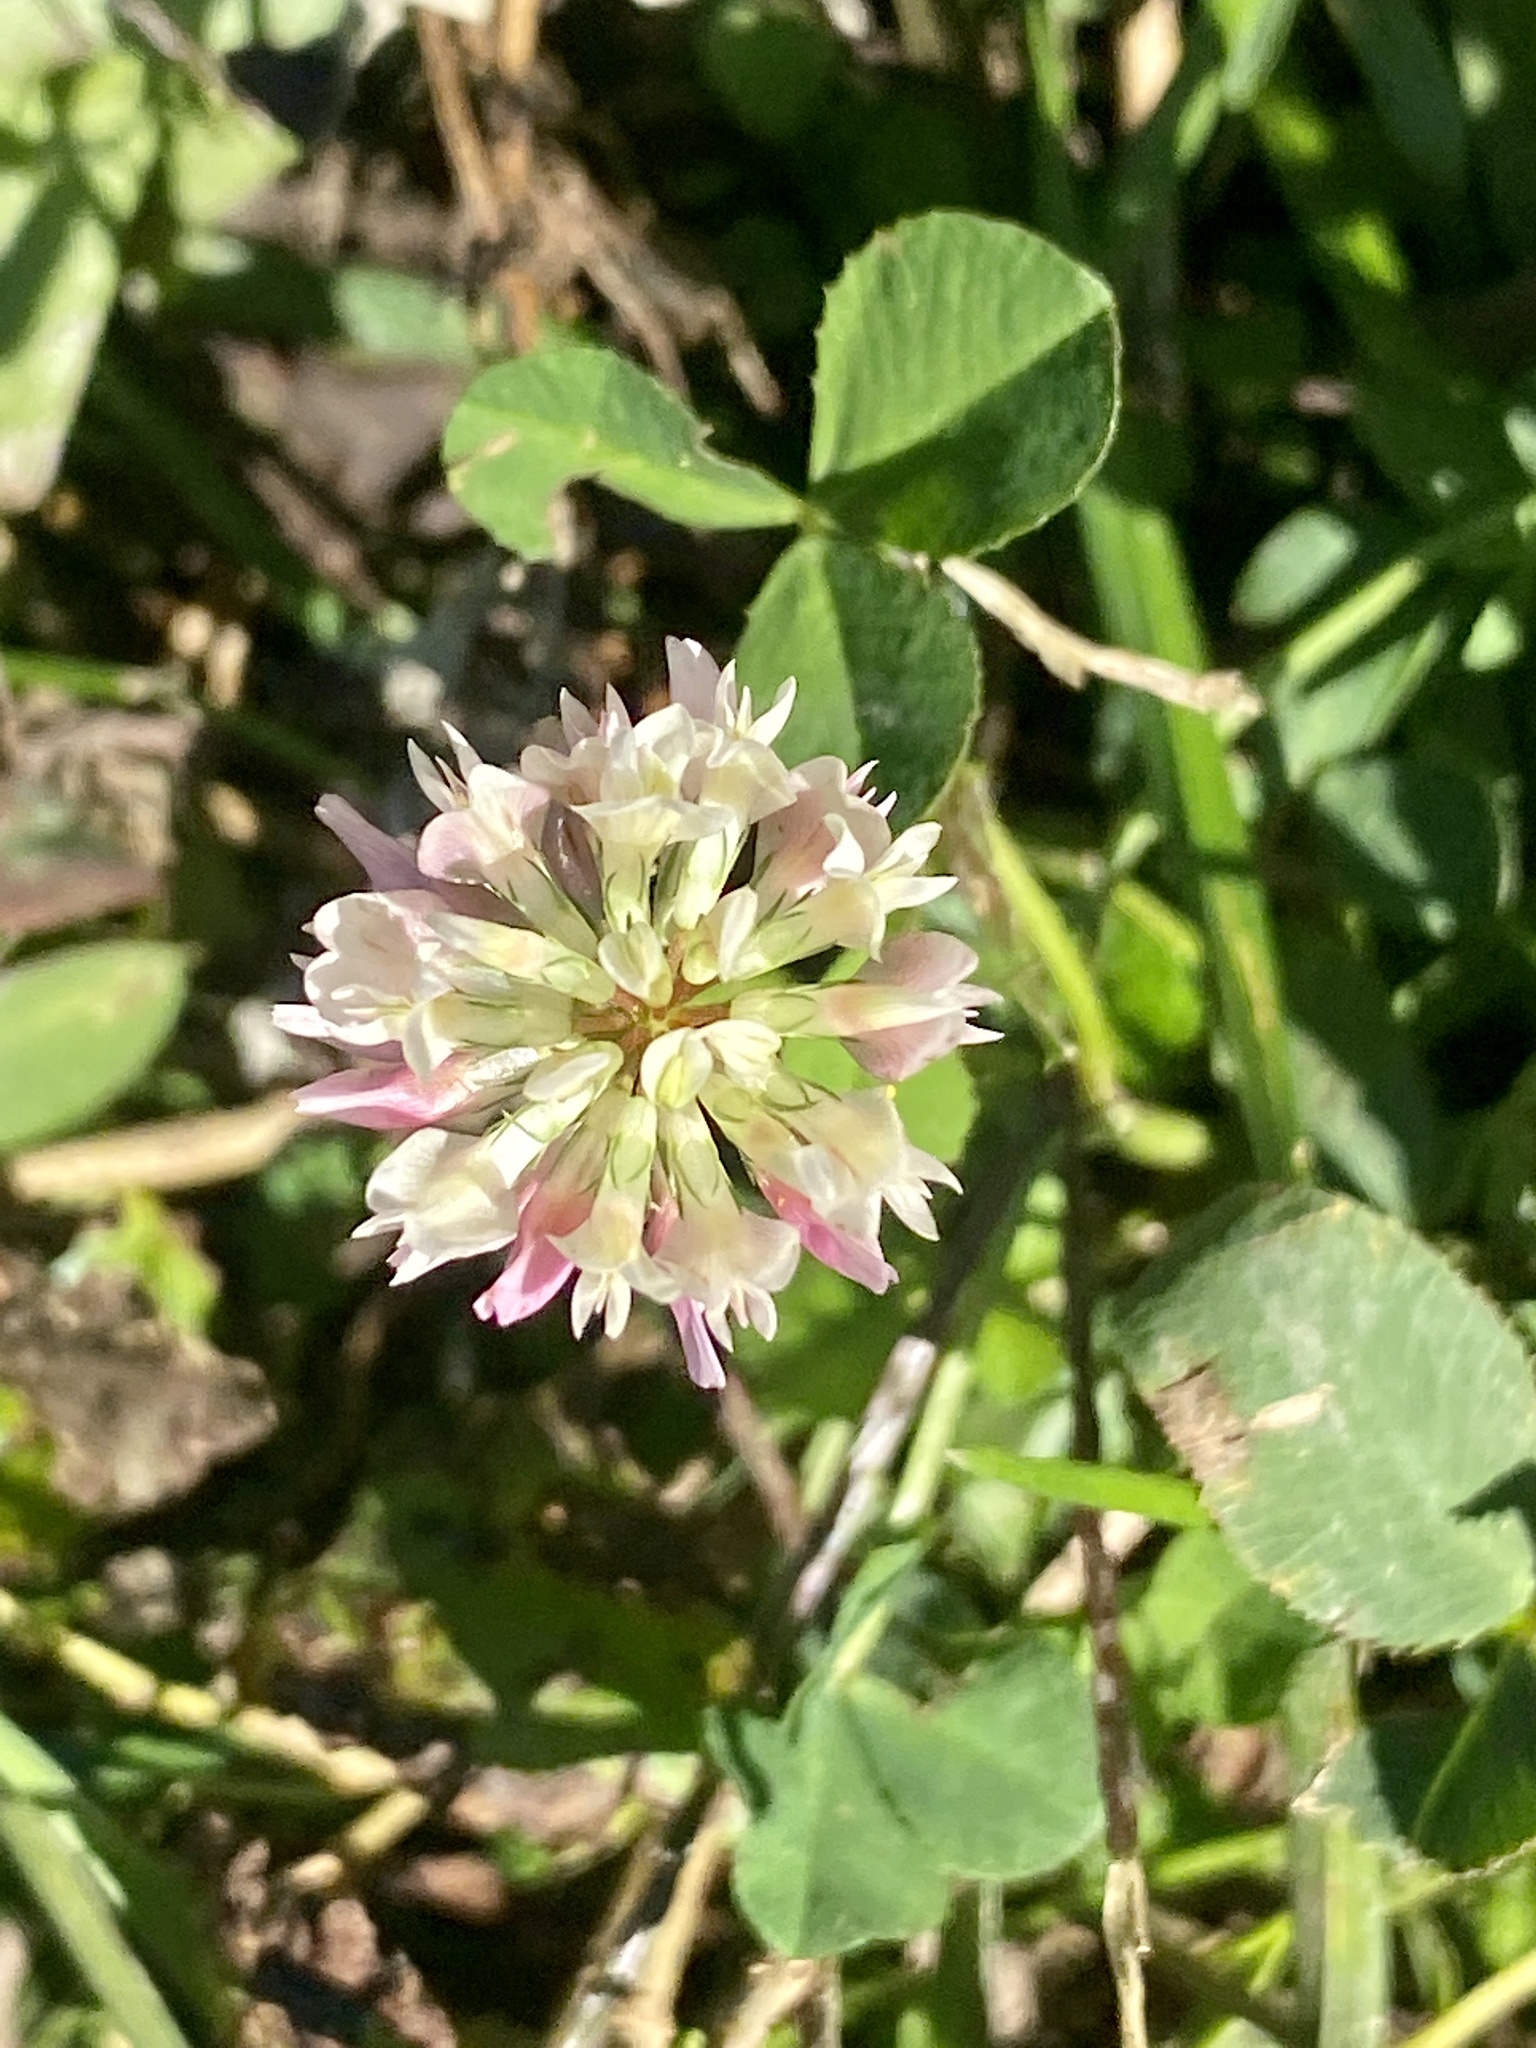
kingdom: Plantae
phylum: Tracheophyta
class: Magnoliopsida
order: Fabales
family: Fabaceae
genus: Trifolium
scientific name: Trifolium hybridum
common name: Alsike clover
